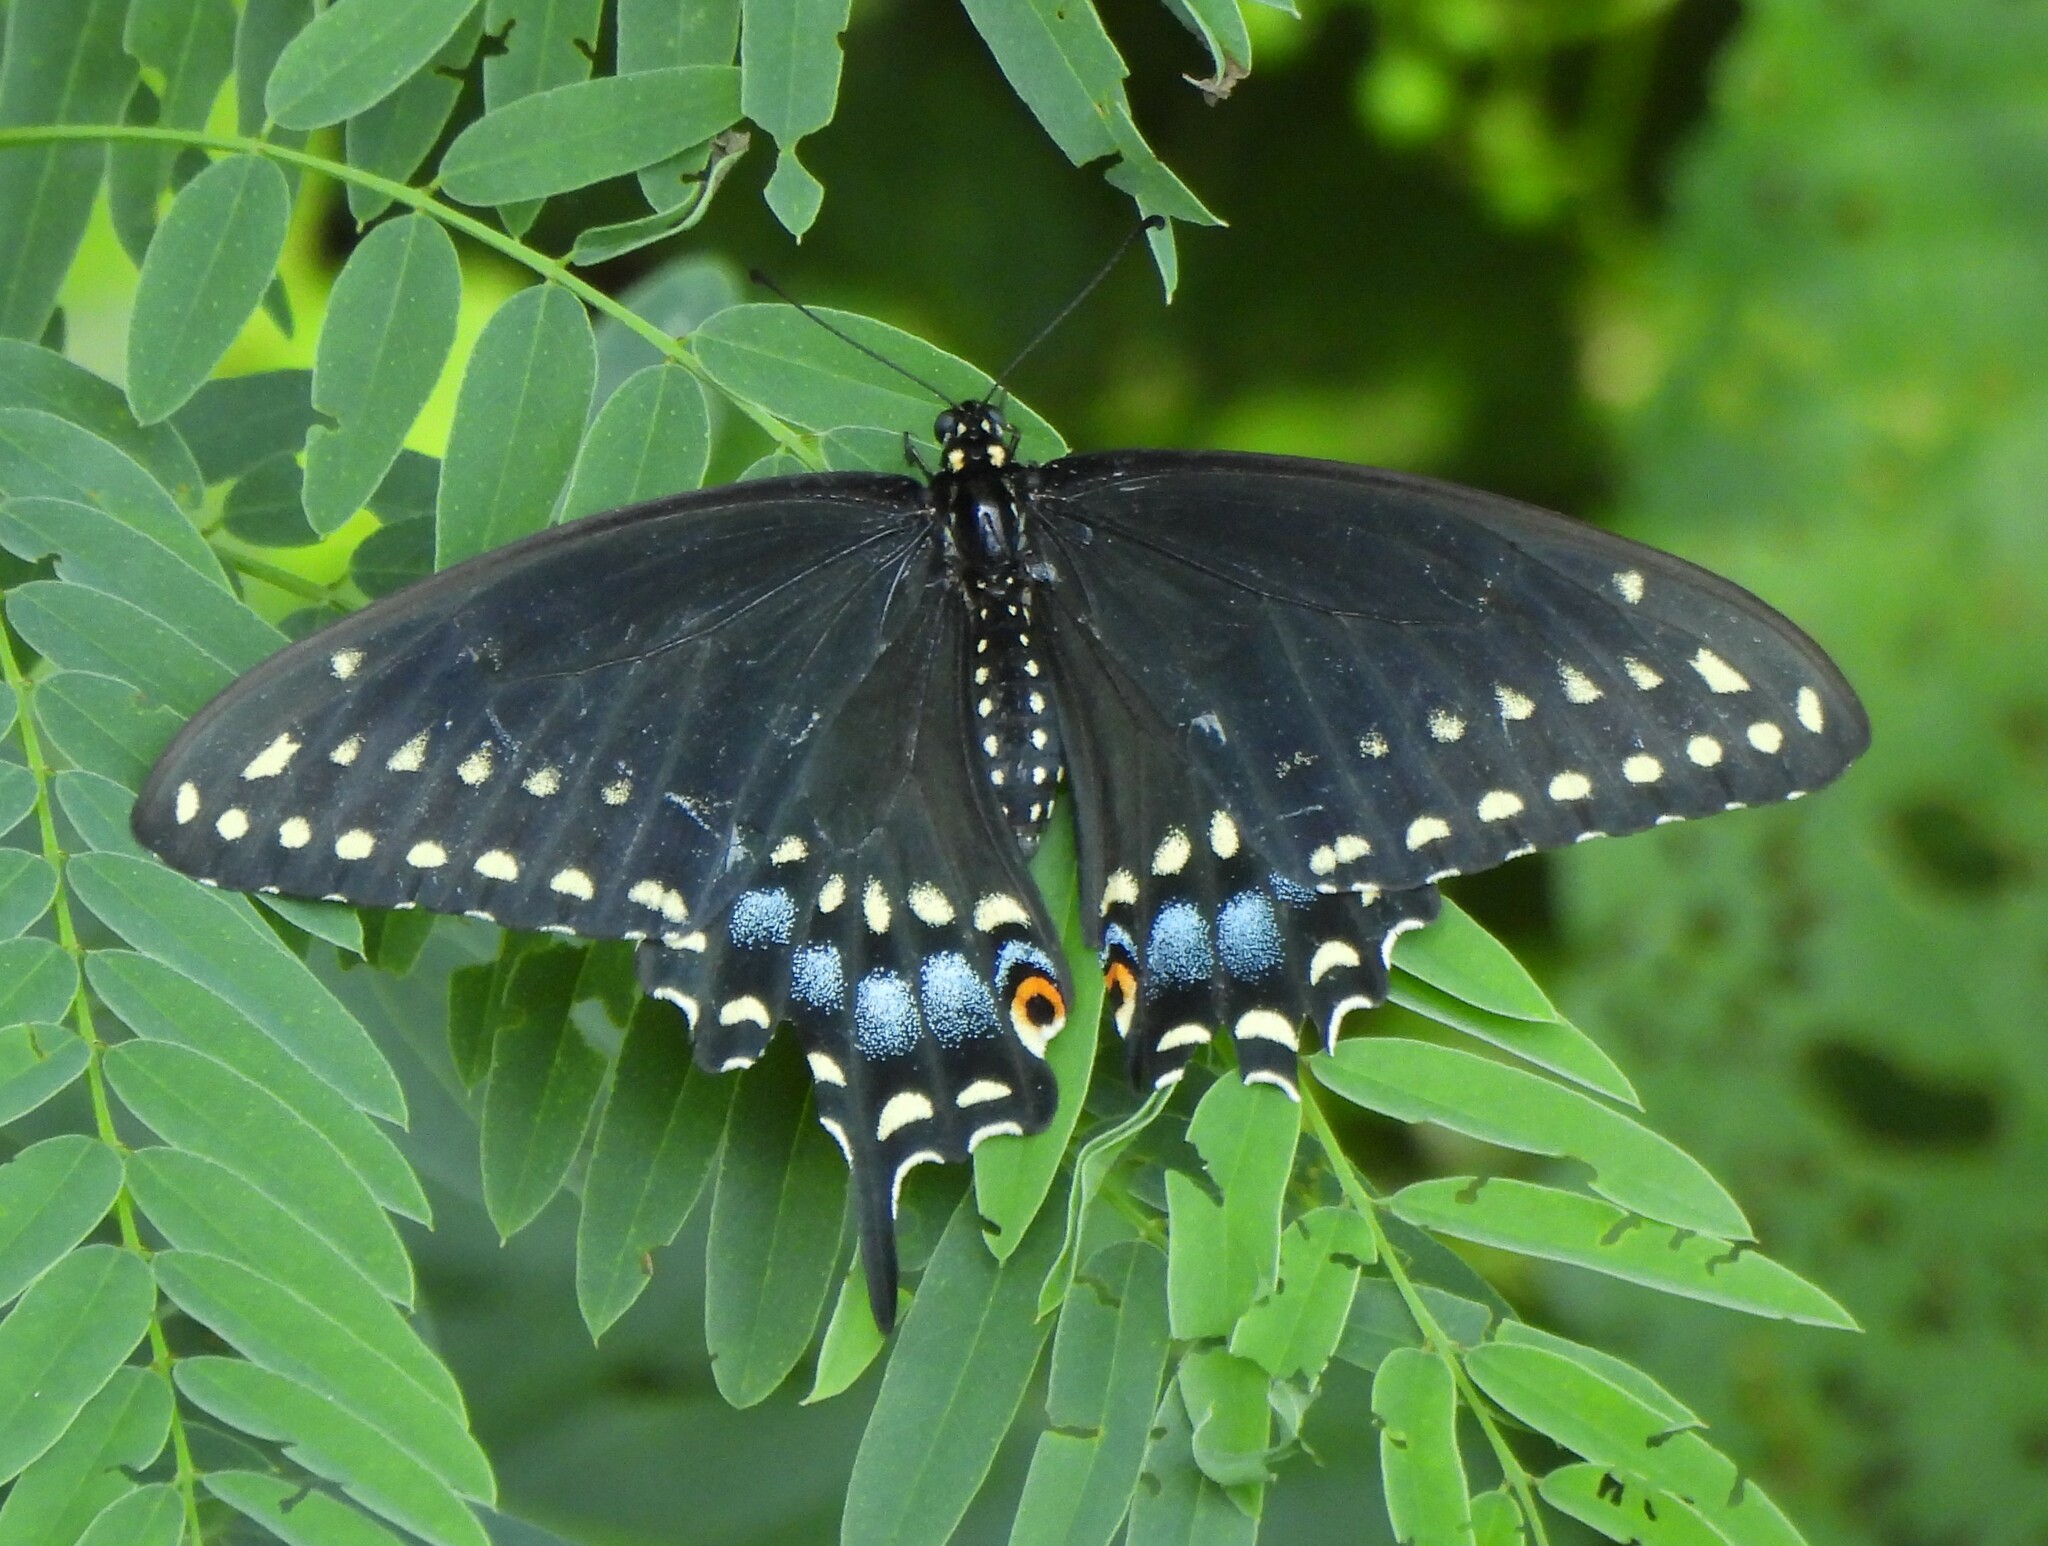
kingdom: Animalia
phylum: Arthropoda
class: Insecta
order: Lepidoptera
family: Papilionidae
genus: Papilio
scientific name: Papilio polyxenes
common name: Black swallowtail
